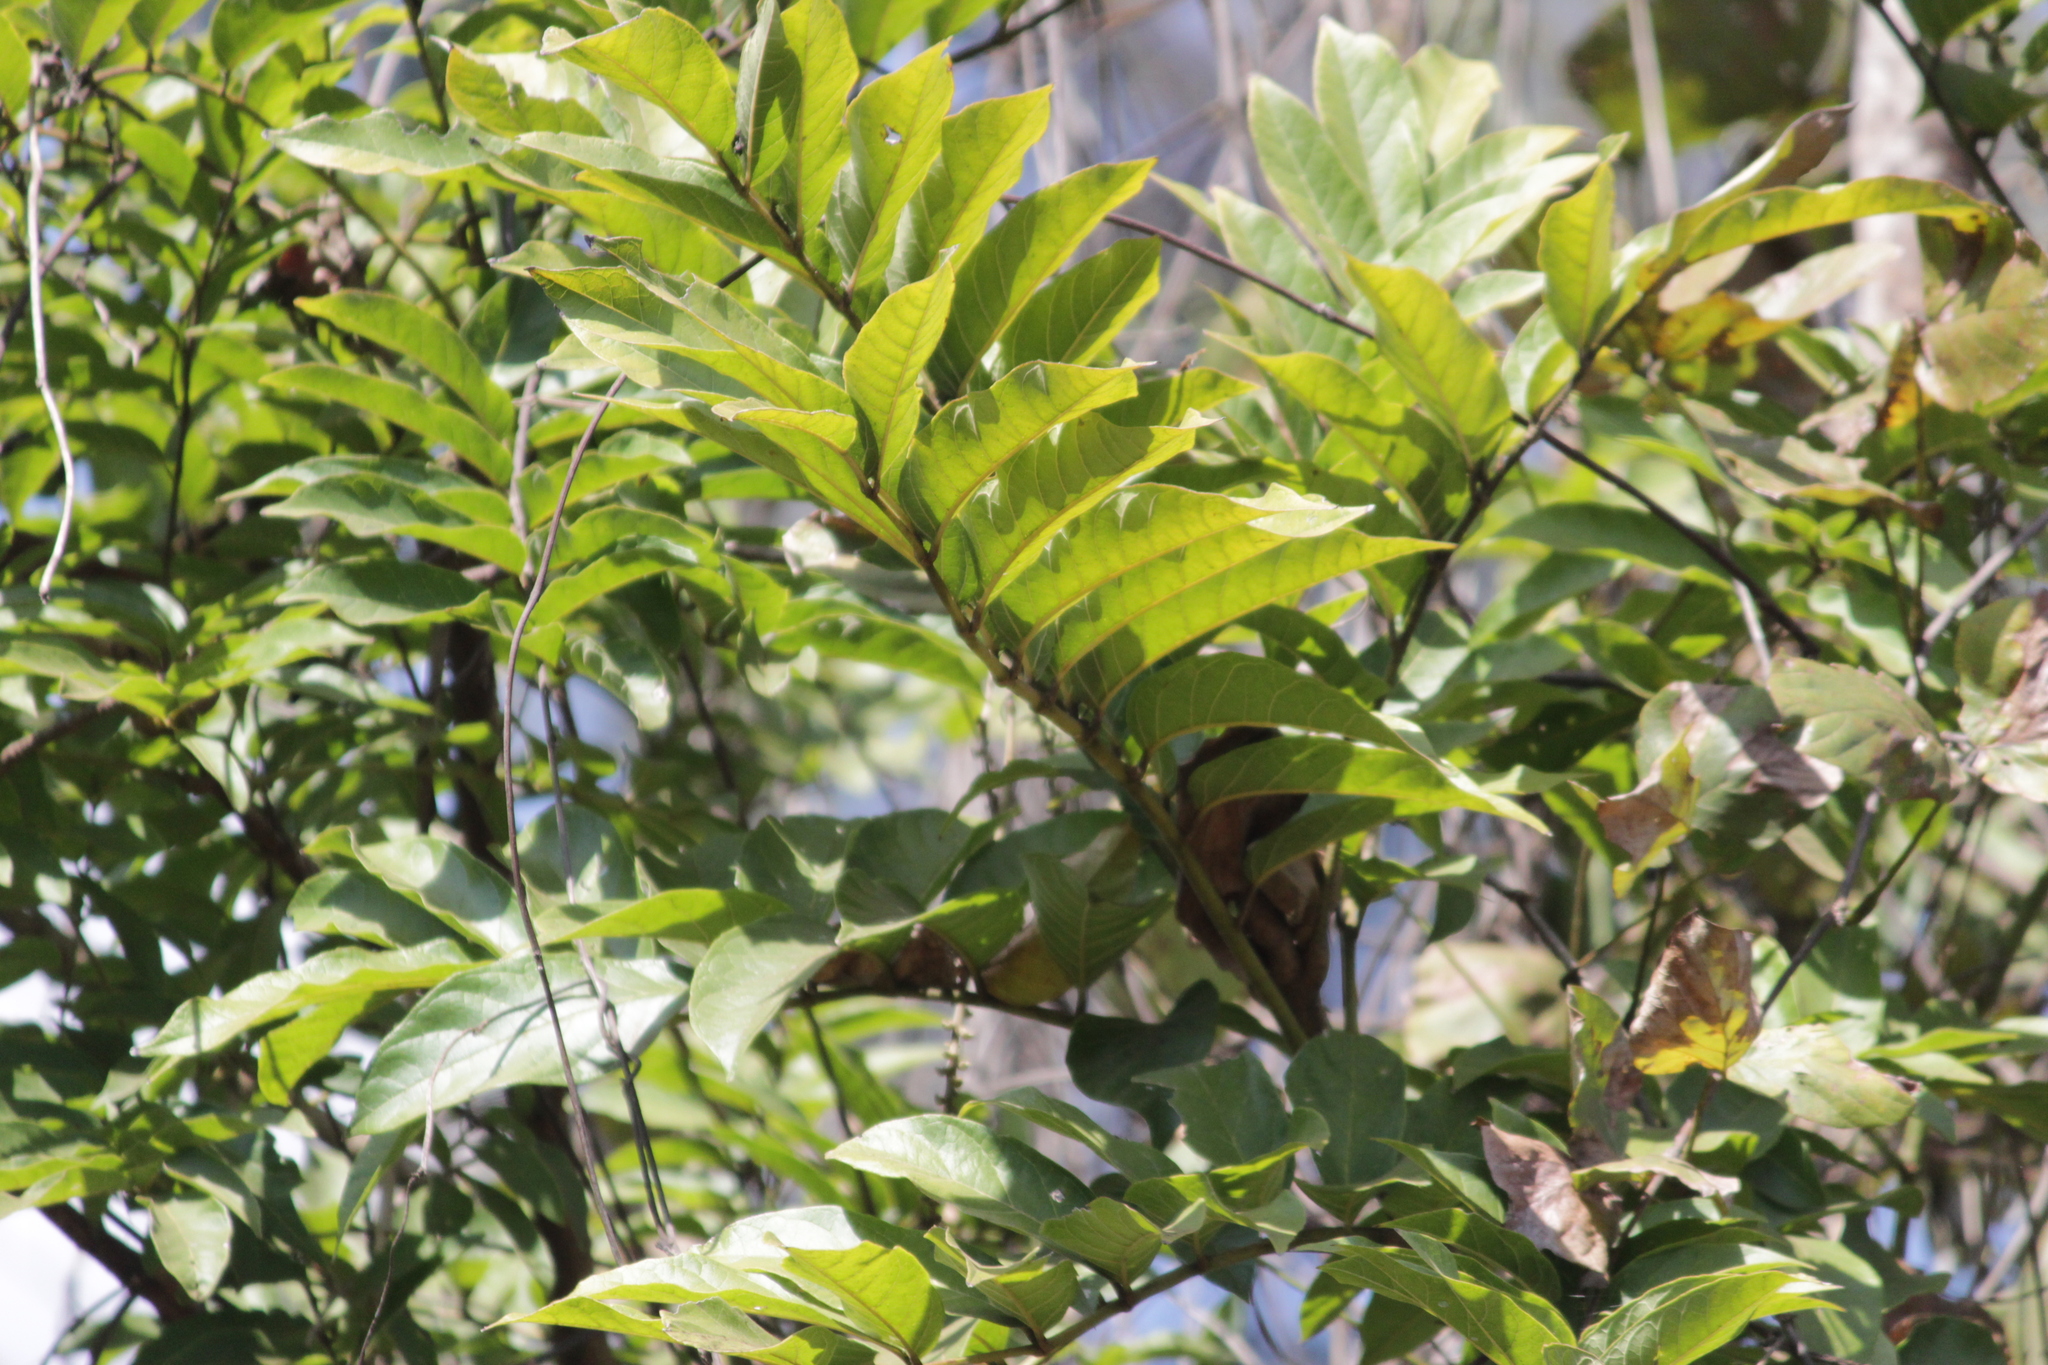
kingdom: Plantae
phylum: Tracheophyta
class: Magnoliopsida
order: Lamiales
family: Bignoniaceae
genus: Kigelia
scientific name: Kigelia africana
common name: Sausage tree
